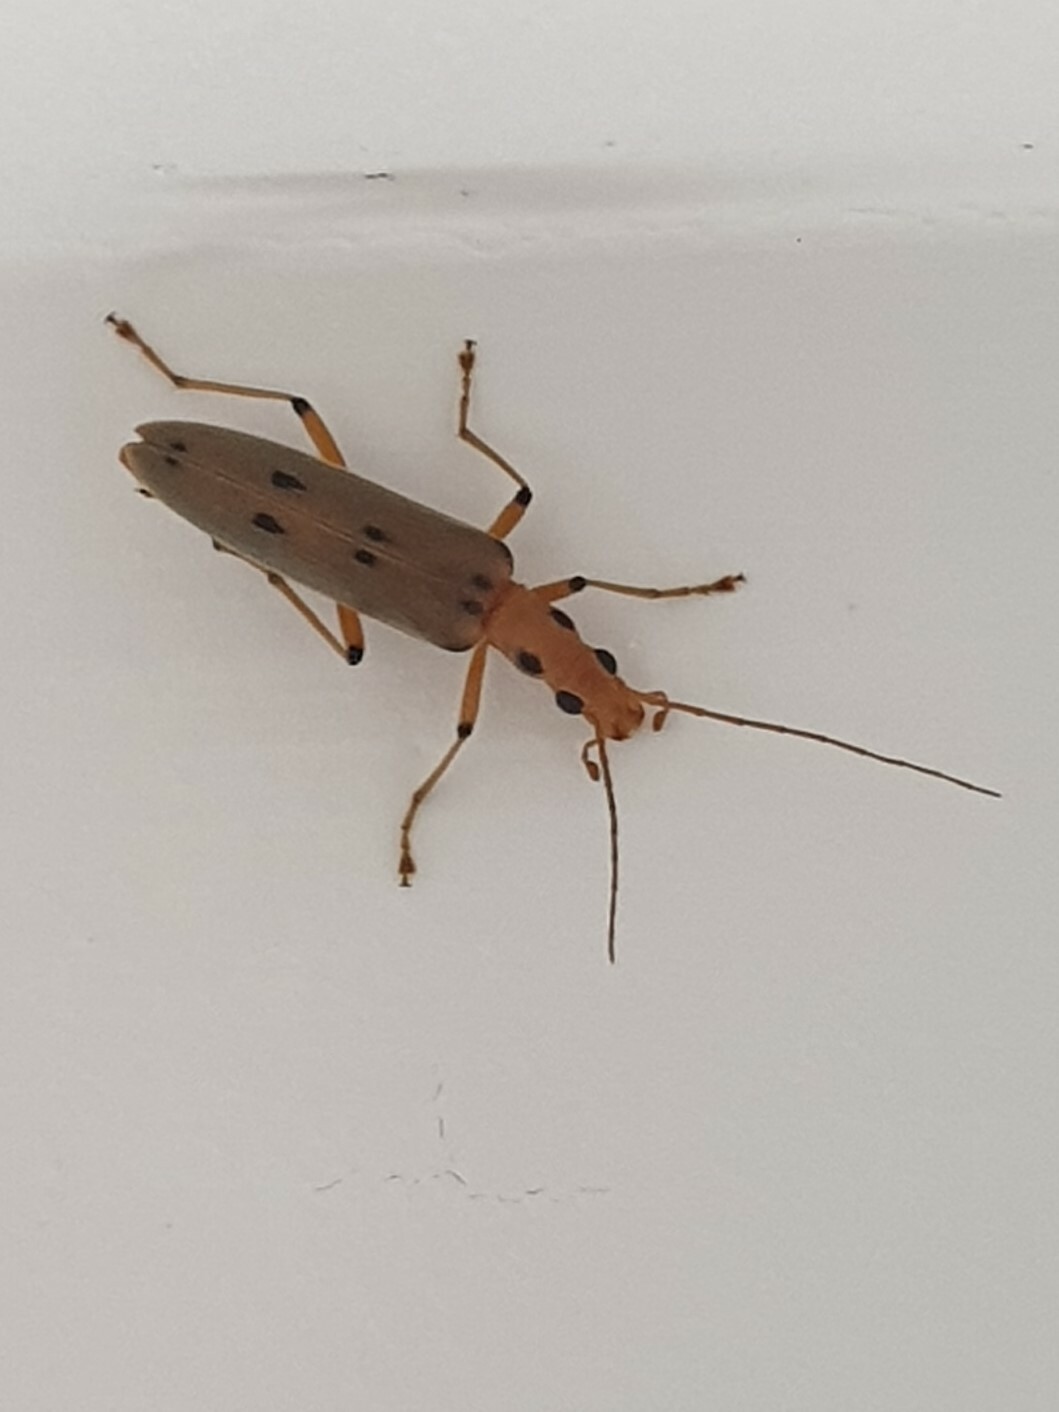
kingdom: Animalia
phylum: Arthropoda
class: Insecta
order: Coleoptera
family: Oedemeridae
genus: Parisopalpus
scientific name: Parisopalpus
